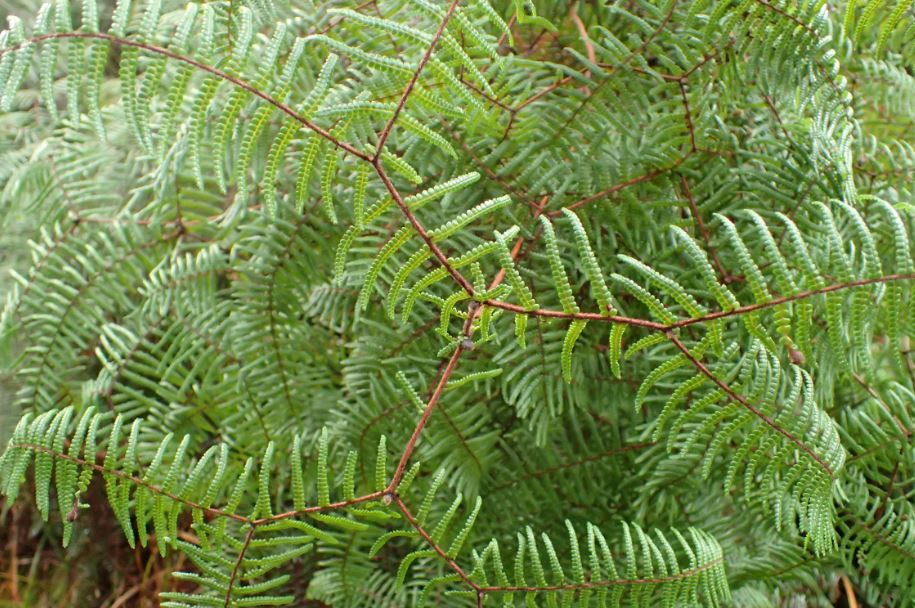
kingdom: Plantae
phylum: Tracheophyta
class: Polypodiopsida
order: Gleicheniales
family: Gleicheniaceae
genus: Gleichenia
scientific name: Gleichenia microphylla
